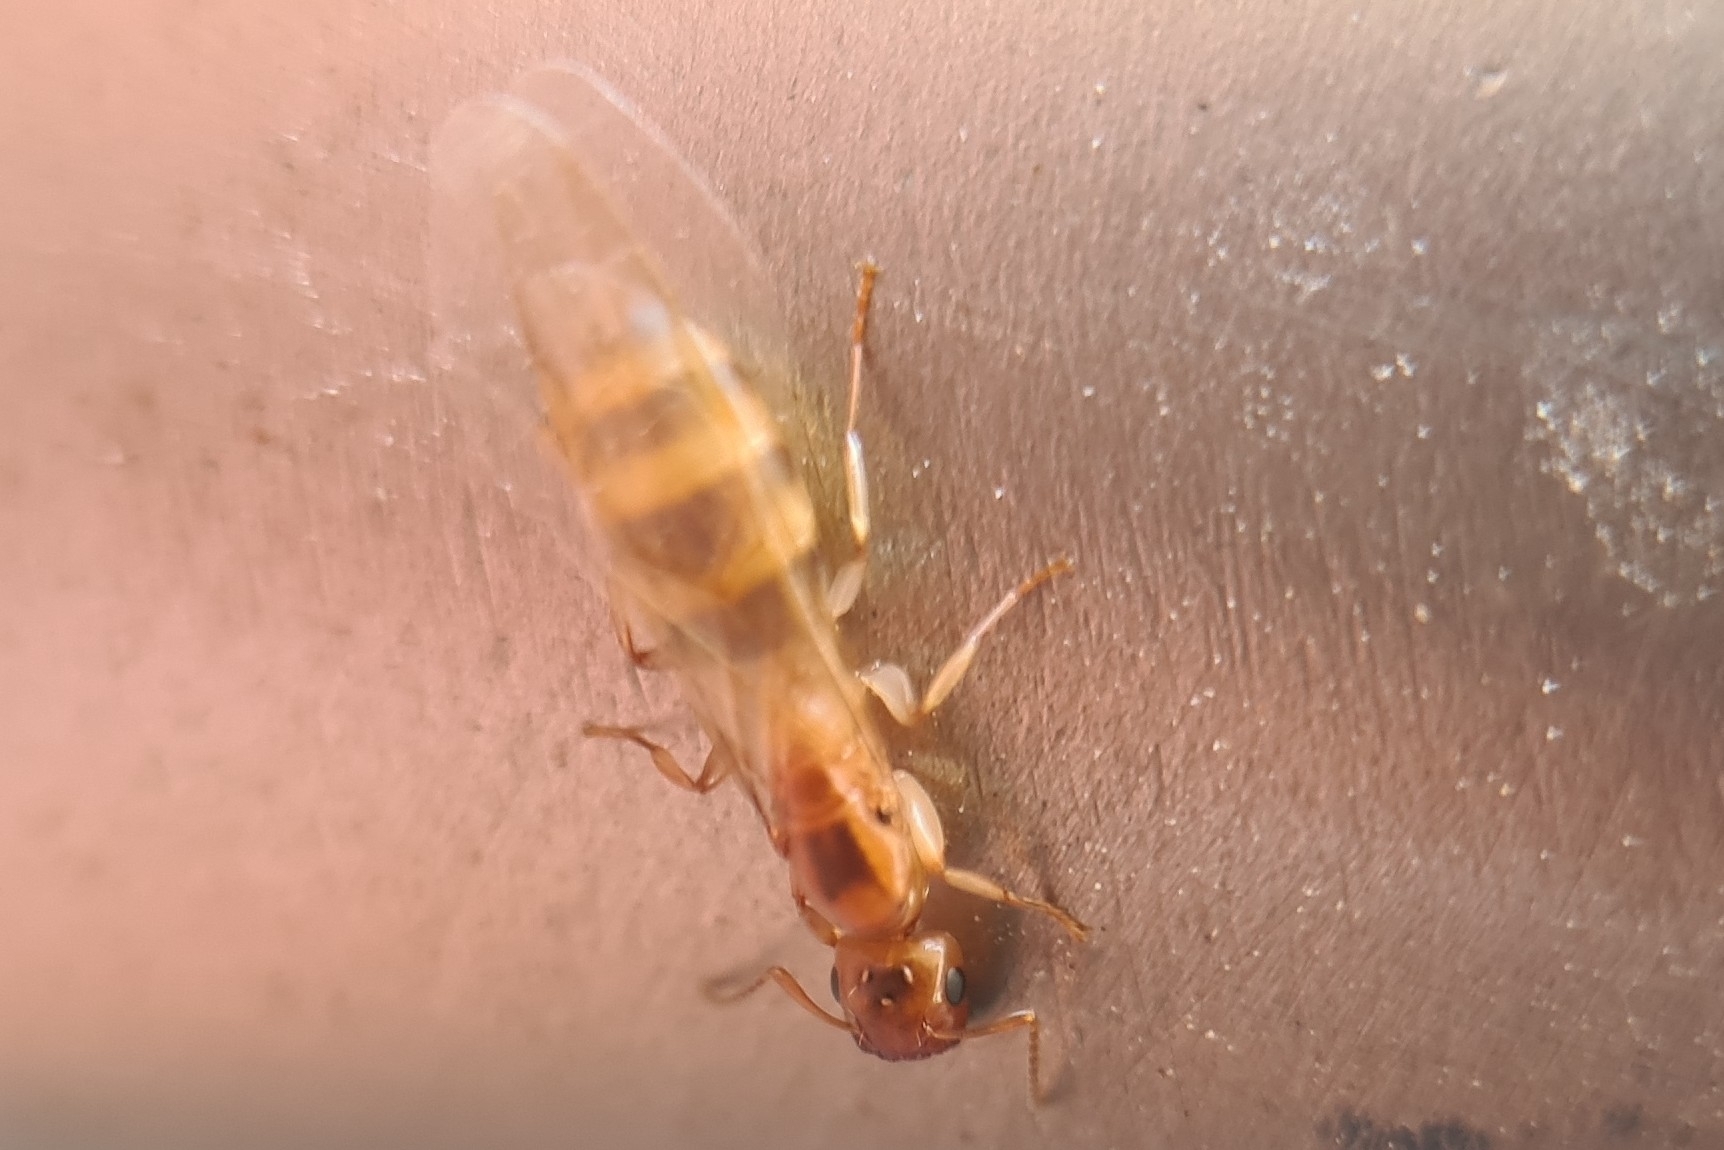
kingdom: Animalia
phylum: Arthropoda
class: Insecta
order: Hymenoptera
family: Formicidae
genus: Colobopsis
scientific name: Colobopsis
